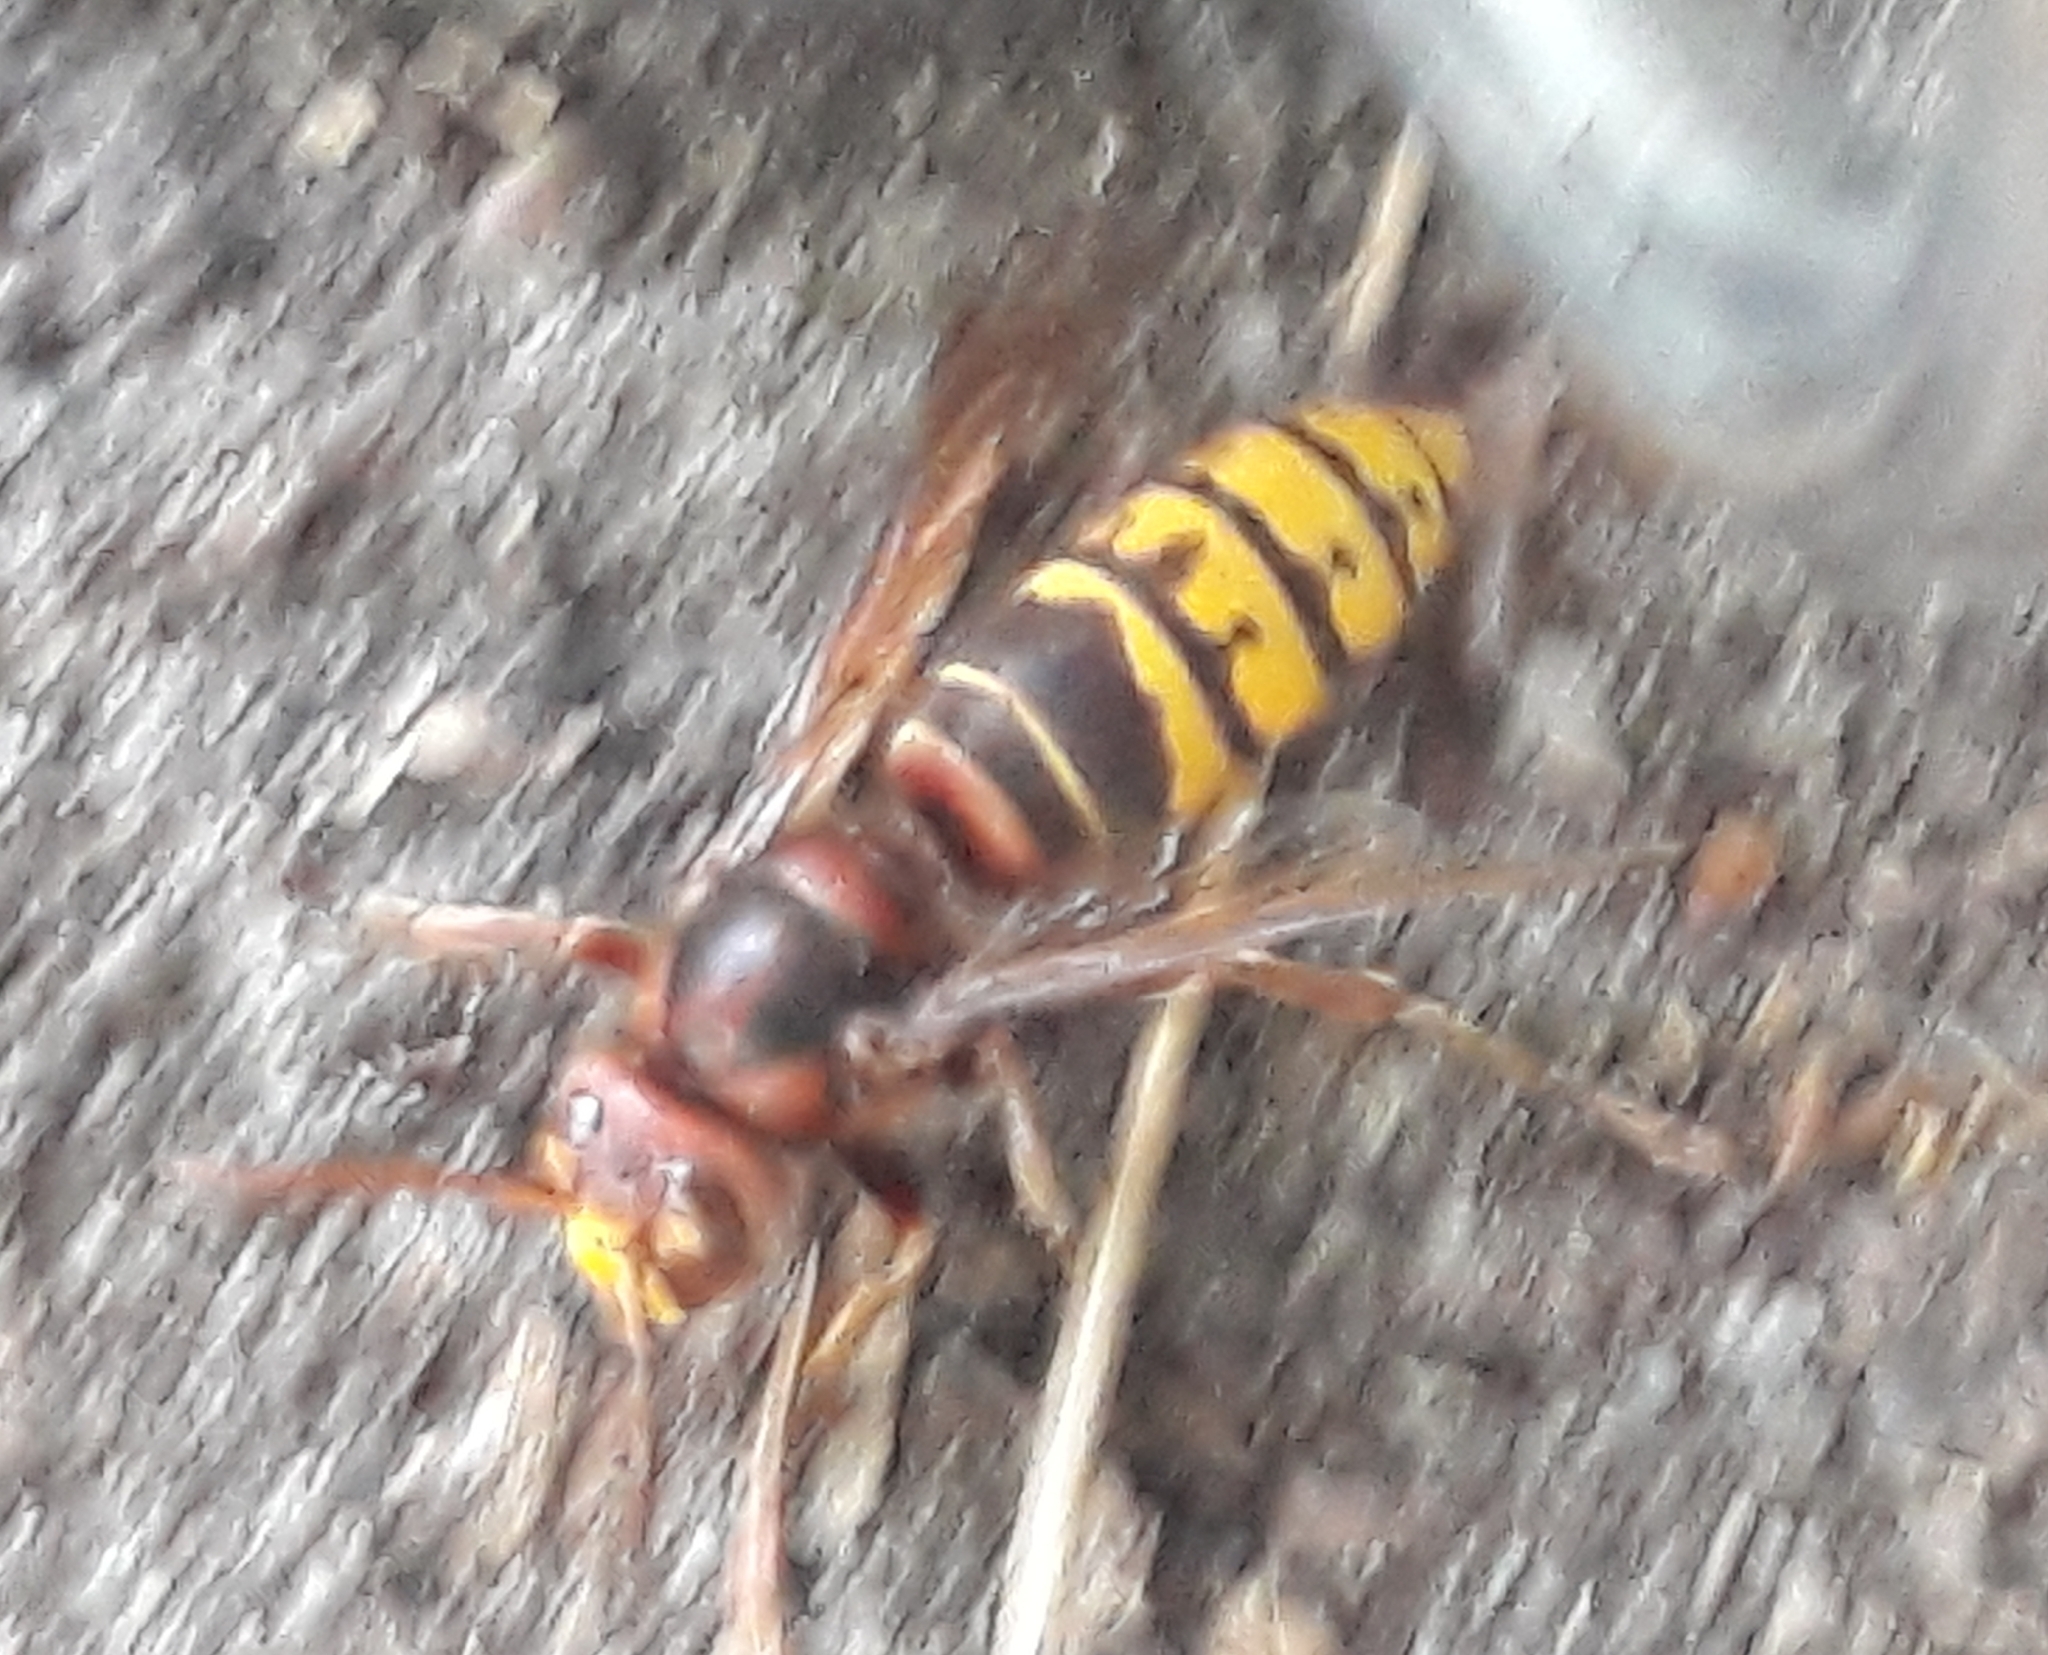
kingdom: Animalia
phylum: Arthropoda
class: Insecta
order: Hymenoptera
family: Vespidae
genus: Vespa
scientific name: Vespa crabro
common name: Hornet
